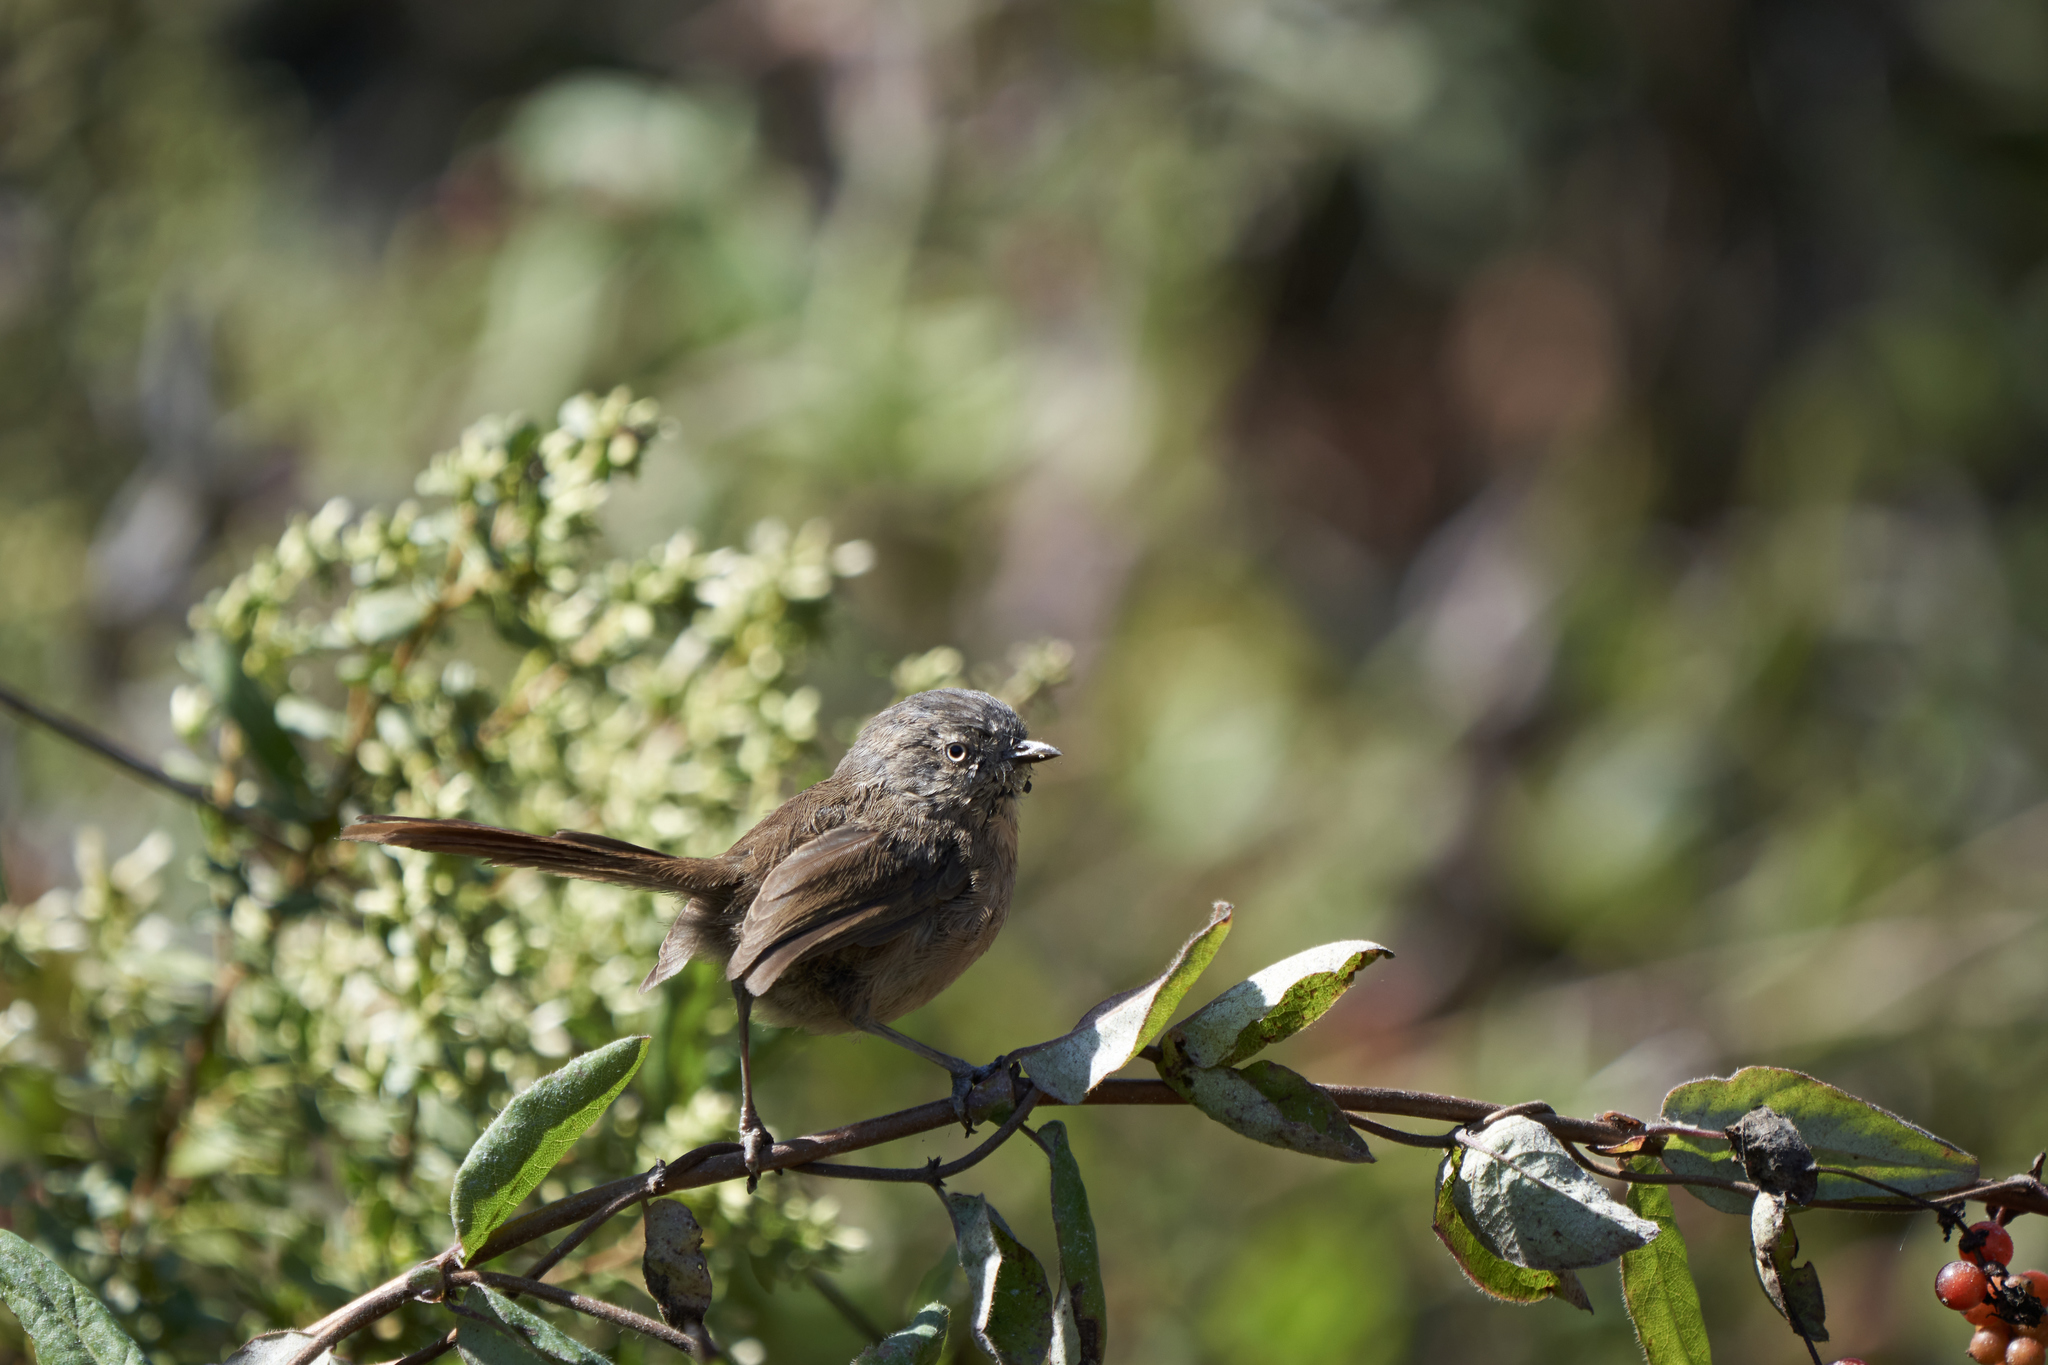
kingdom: Animalia
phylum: Chordata
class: Aves
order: Passeriformes
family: Sylviidae
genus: Chamaea
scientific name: Chamaea fasciata
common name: Wrentit
